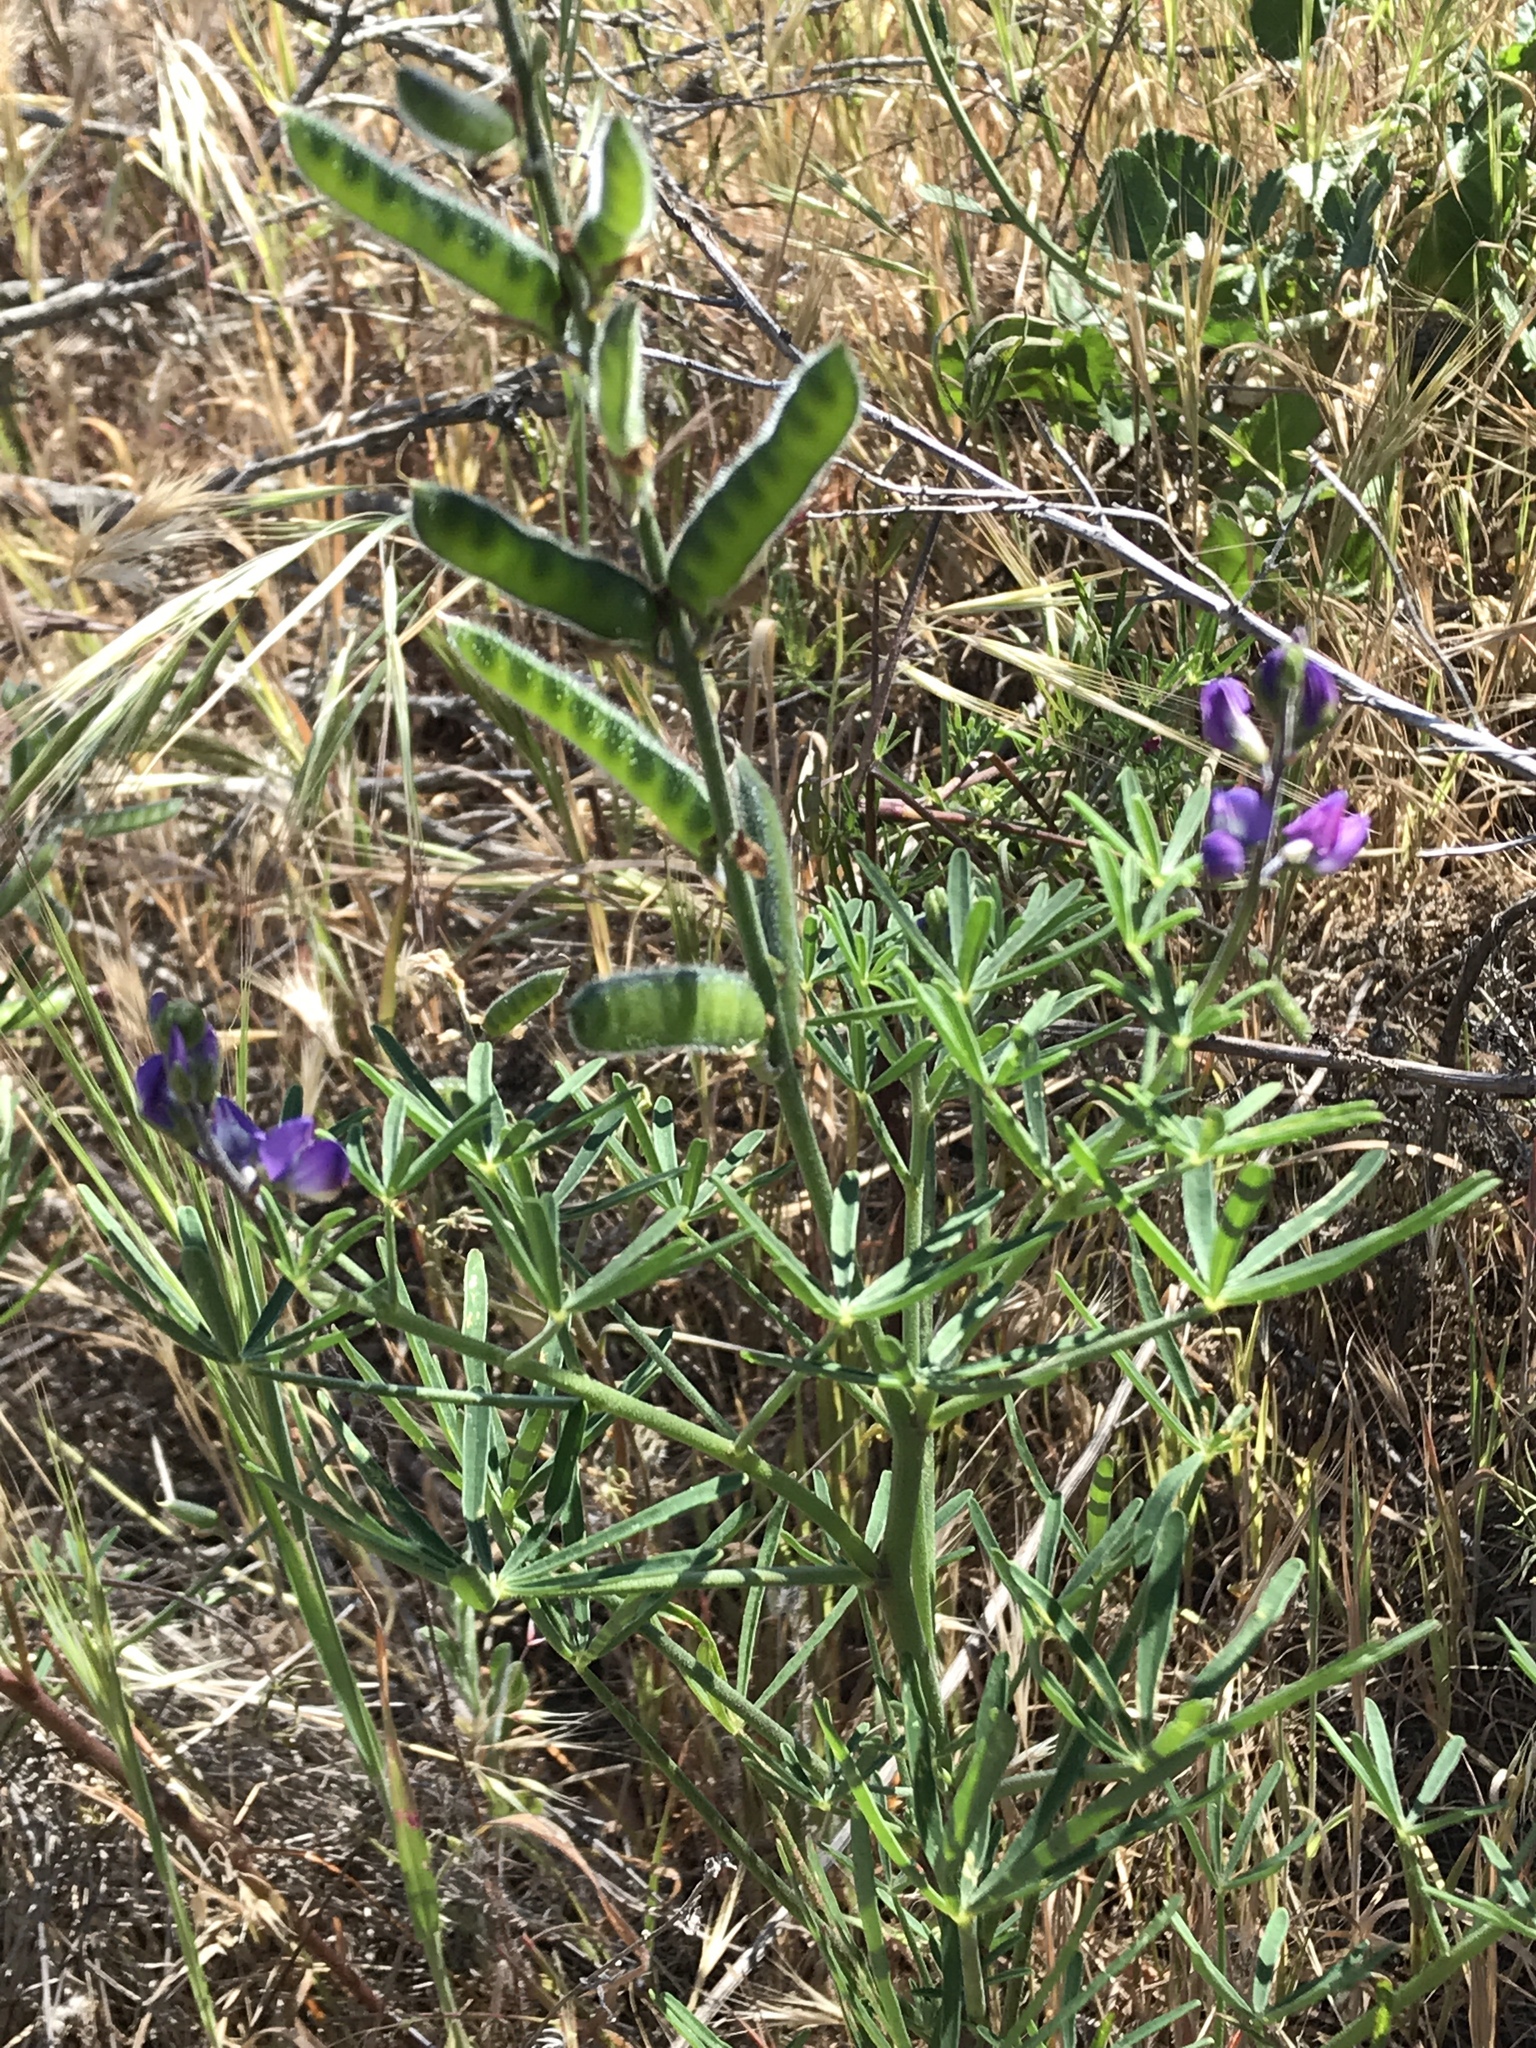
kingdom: Plantae
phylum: Tracheophyta
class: Magnoliopsida
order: Fabales
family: Fabaceae
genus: Lupinus
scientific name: Lupinus truncatus
